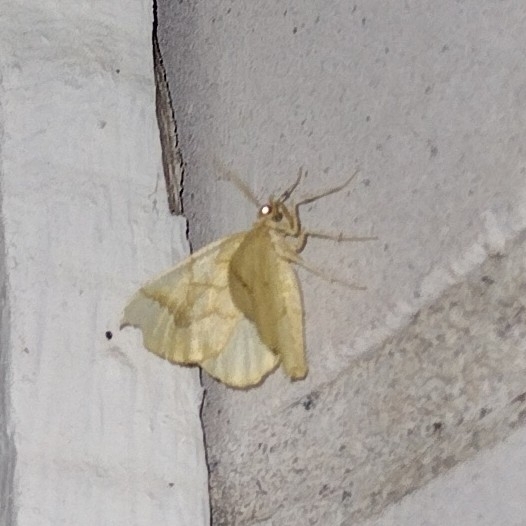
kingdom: Animalia
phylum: Arthropoda
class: Insecta
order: Lepidoptera
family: Geometridae
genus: Eulithis
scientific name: Eulithis mellinata
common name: Spinach
